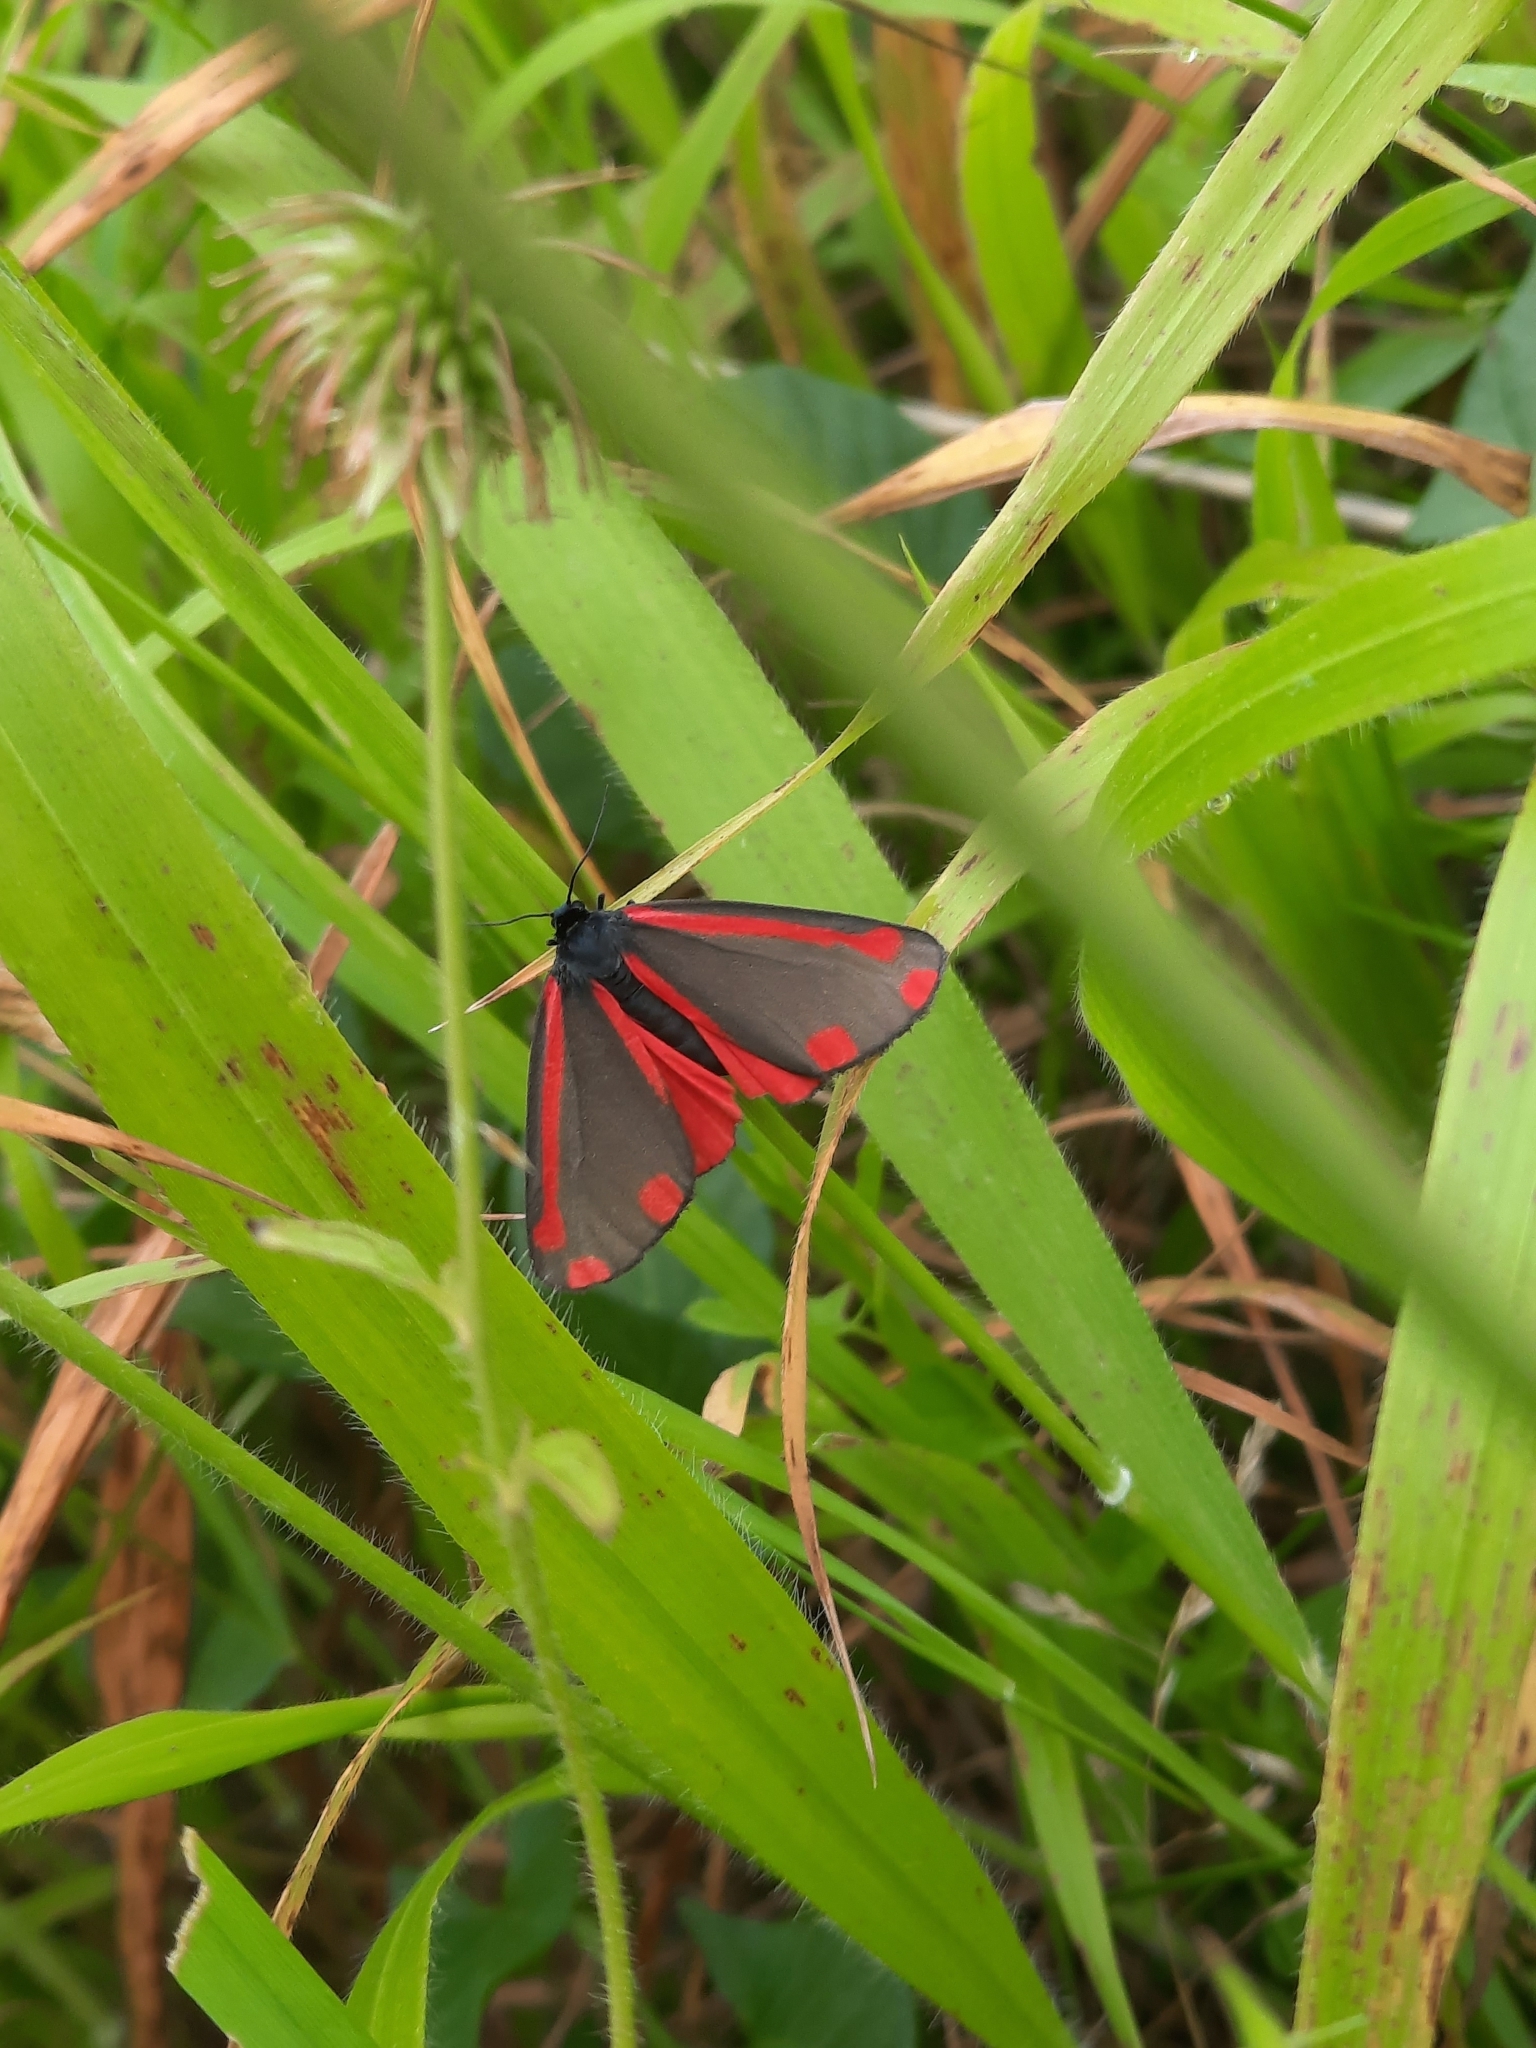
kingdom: Animalia
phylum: Arthropoda
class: Insecta
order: Lepidoptera
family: Erebidae
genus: Tyria
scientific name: Tyria jacobaeae
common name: Cinnabar
